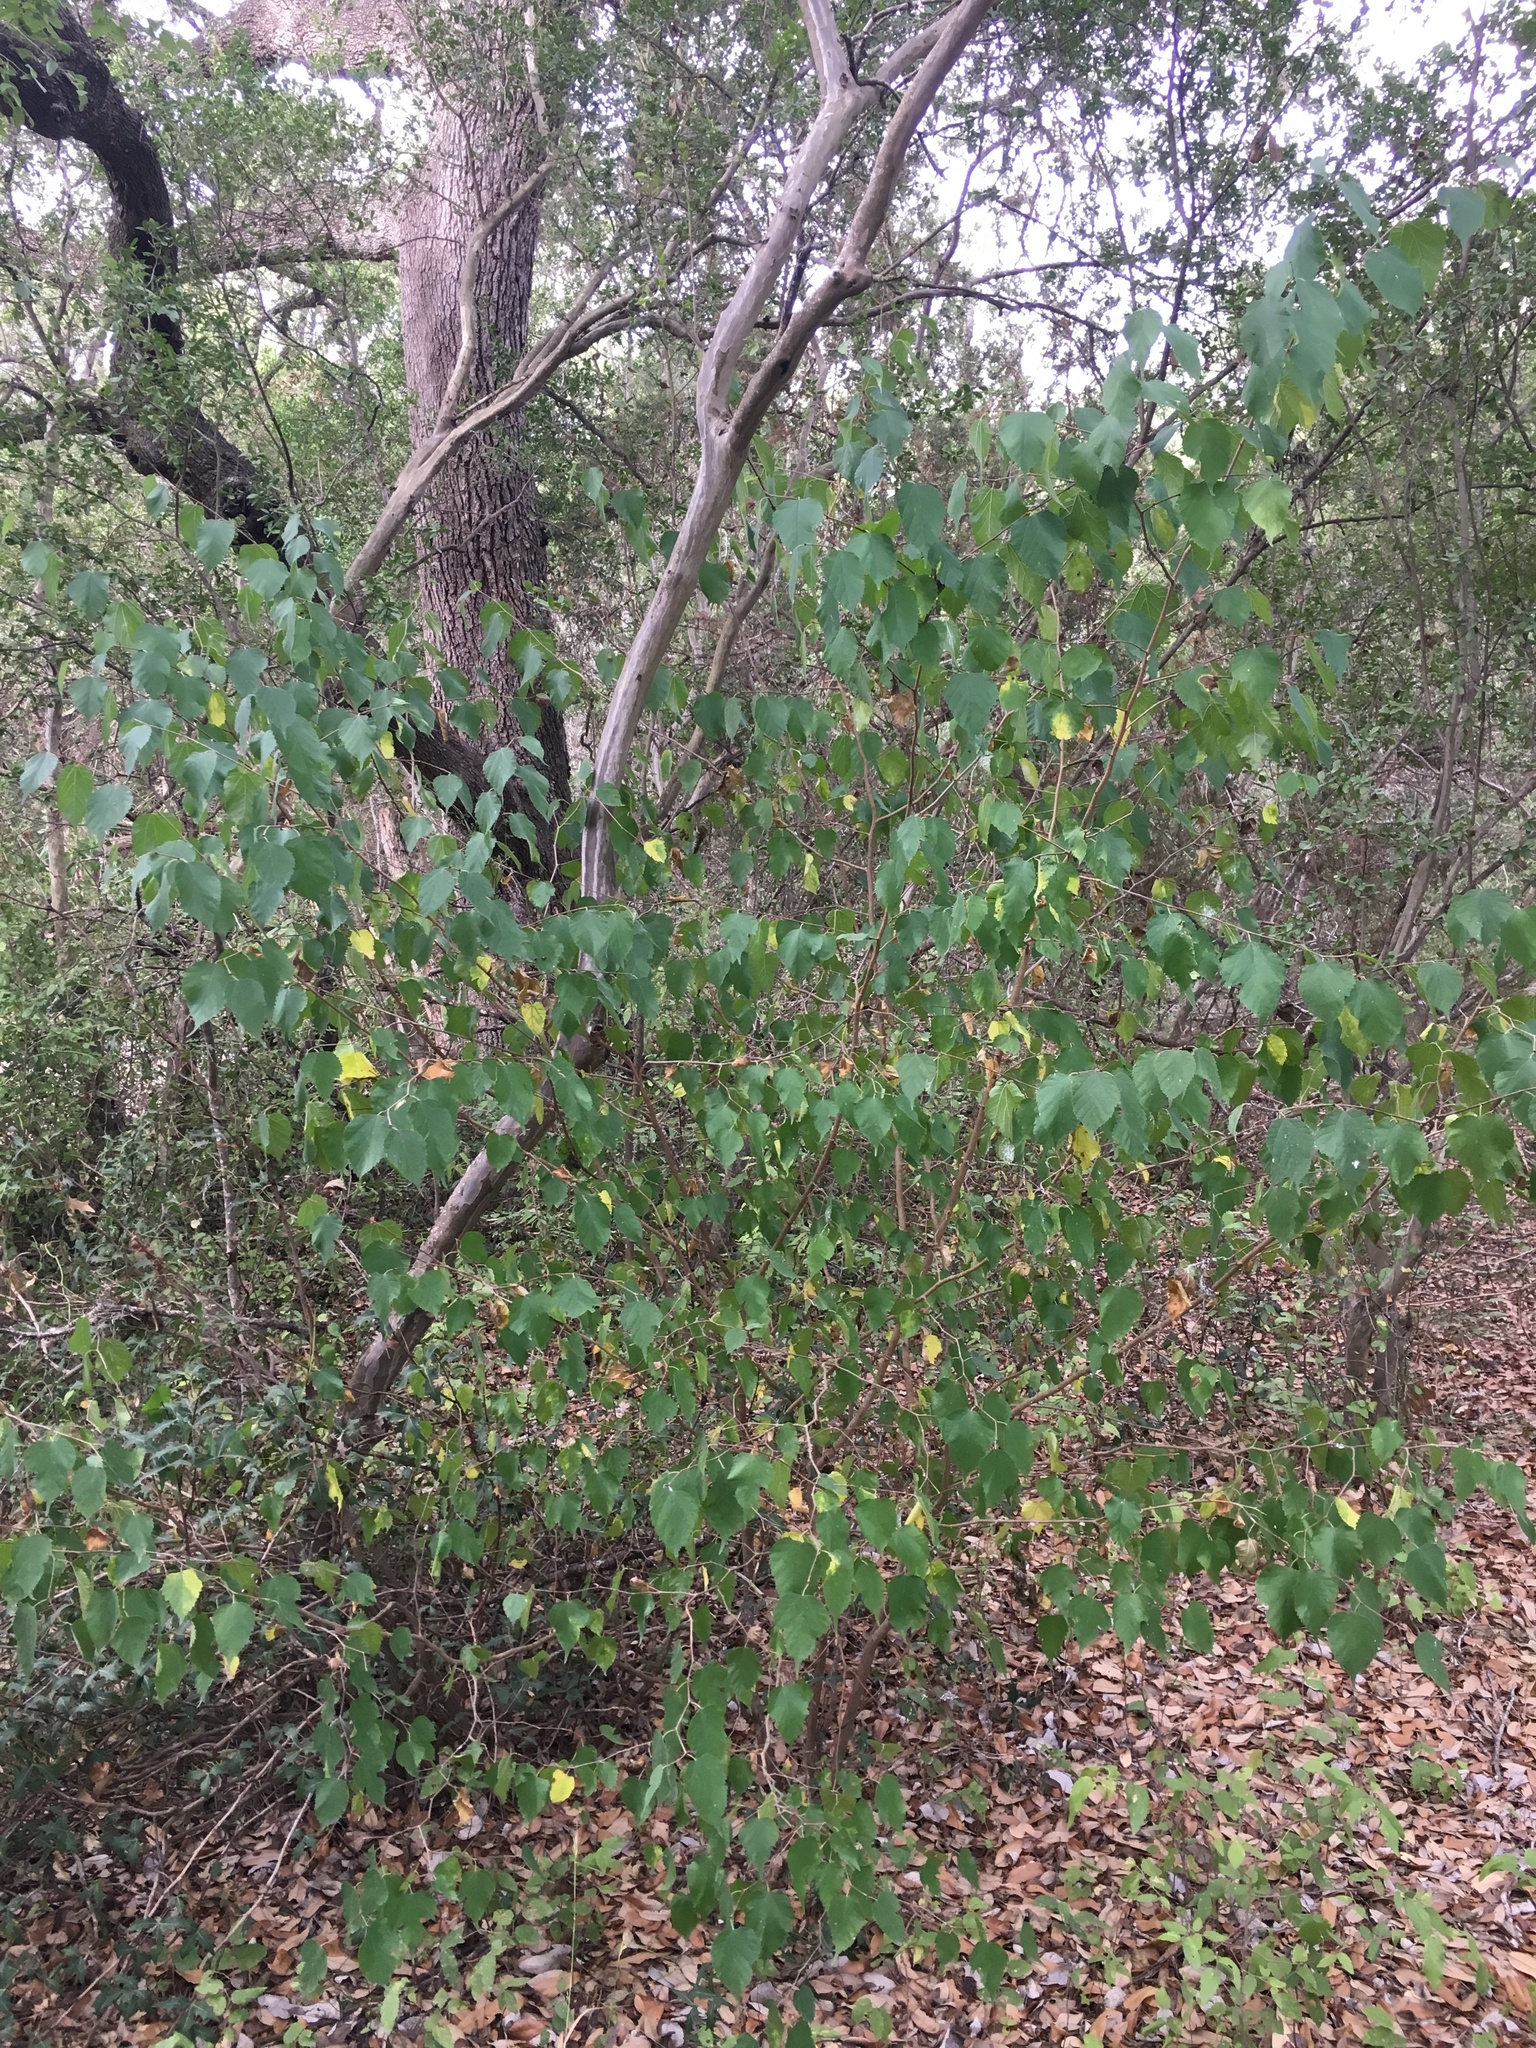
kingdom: Plantae
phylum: Tracheophyta
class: Magnoliopsida
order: Rosales
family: Moraceae
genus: Morus
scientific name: Morus microphylla
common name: Mexican mulberry
